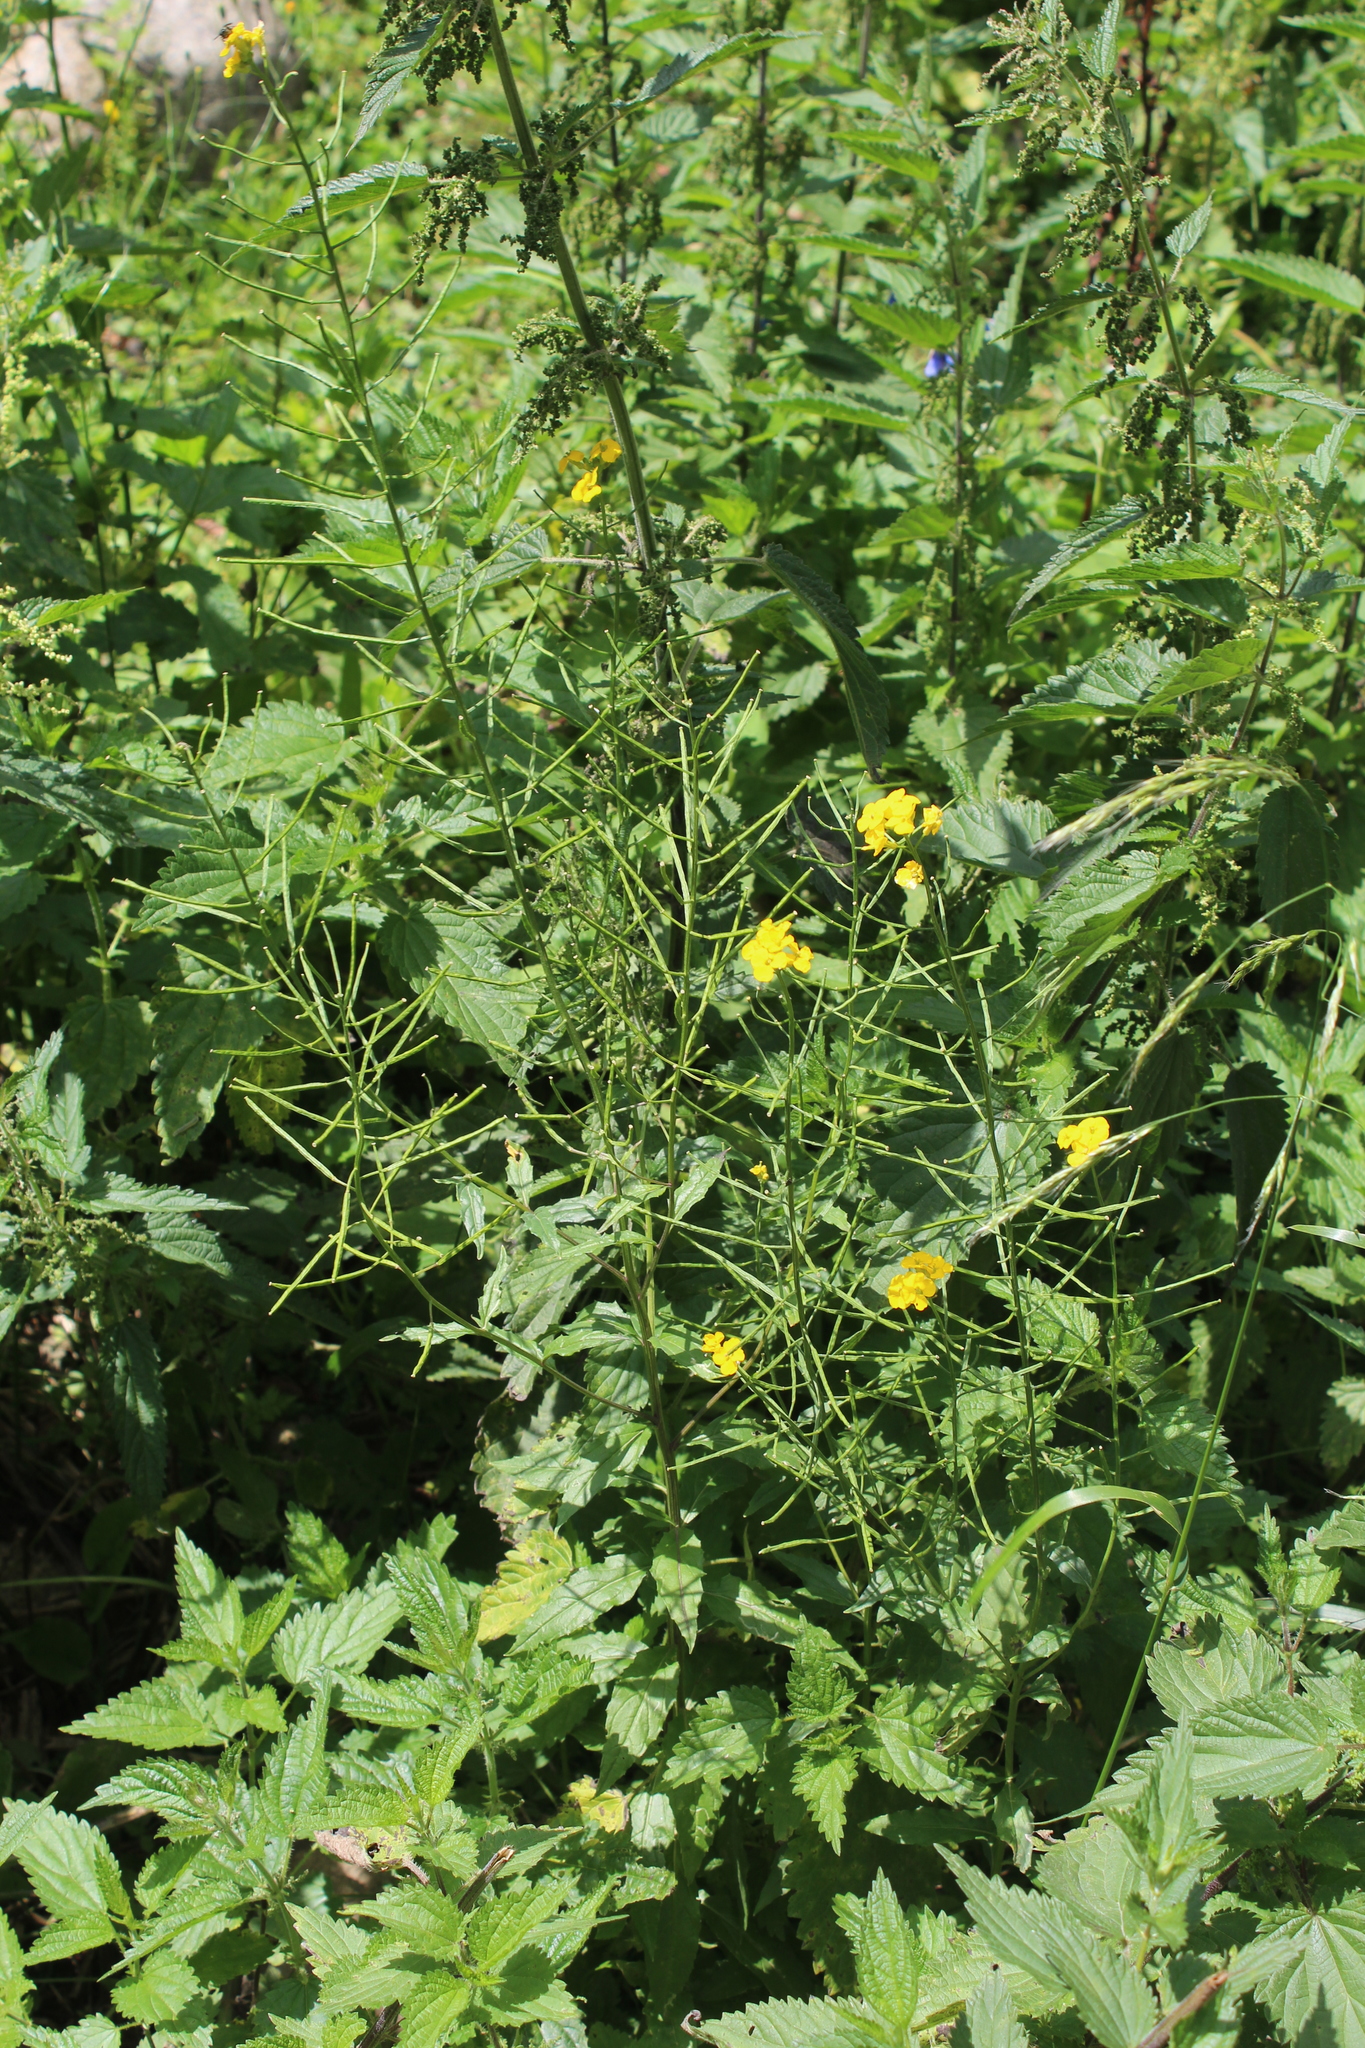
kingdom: Plantae
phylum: Tracheophyta
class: Magnoliopsida
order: Brassicales
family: Brassicaceae
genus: Erysimum
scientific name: Erysimum aureum
